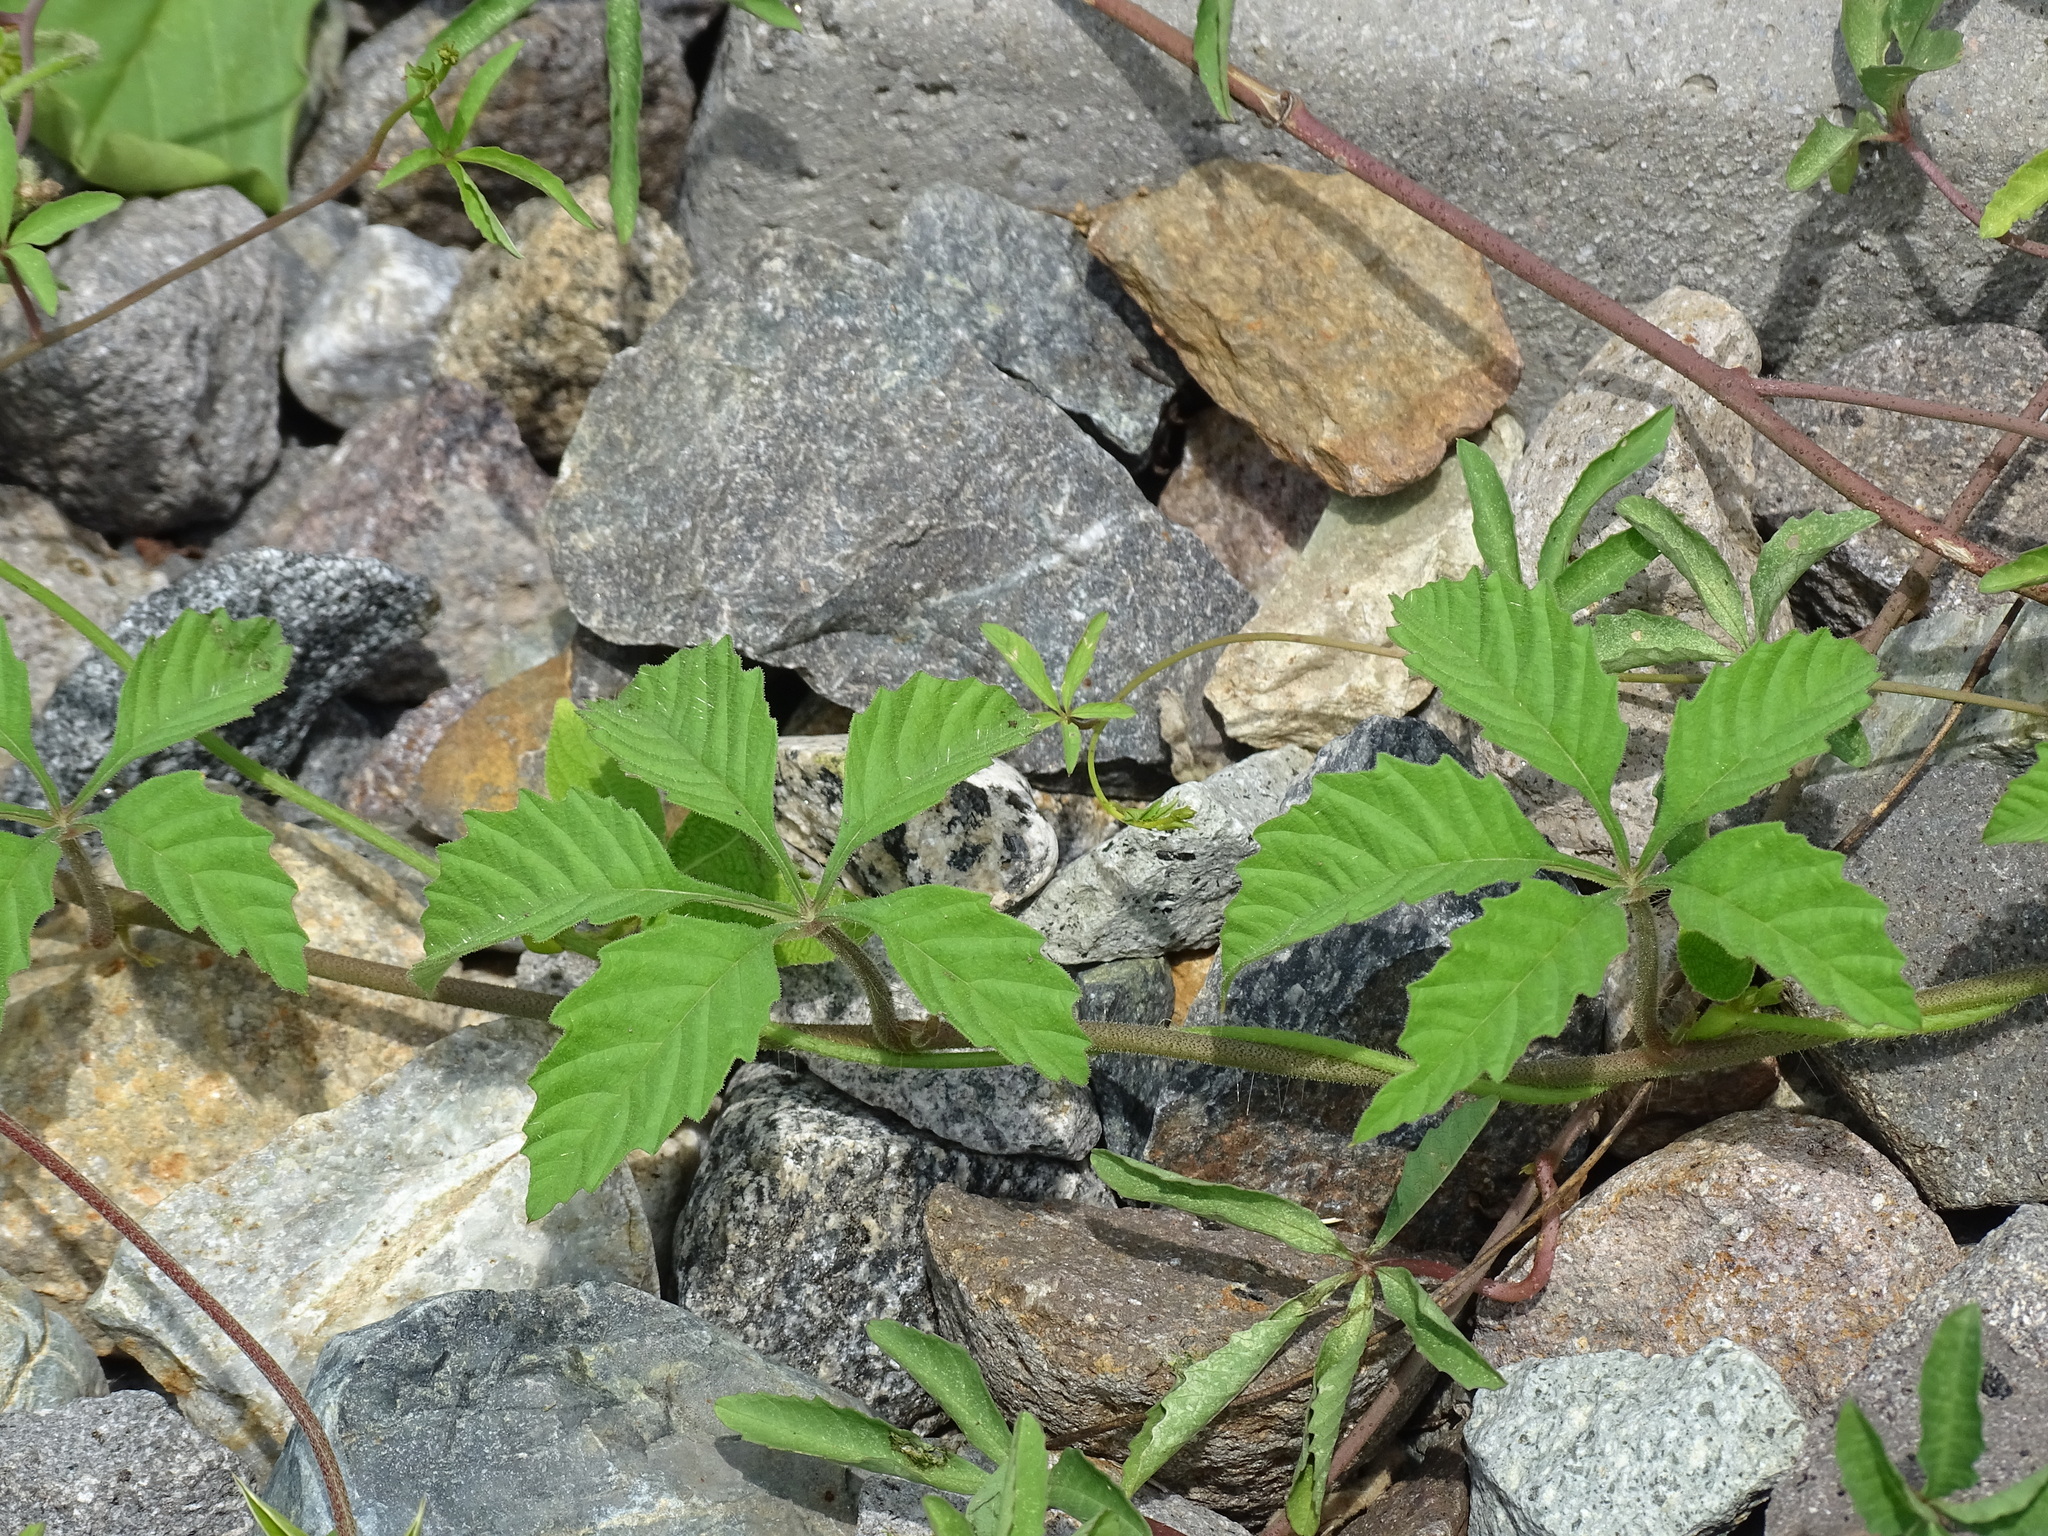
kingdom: Plantae
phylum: Tracheophyta
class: Magnoliopsida
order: Solanales
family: Convolvulaceae
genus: Distimake
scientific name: Distimake cissoides
